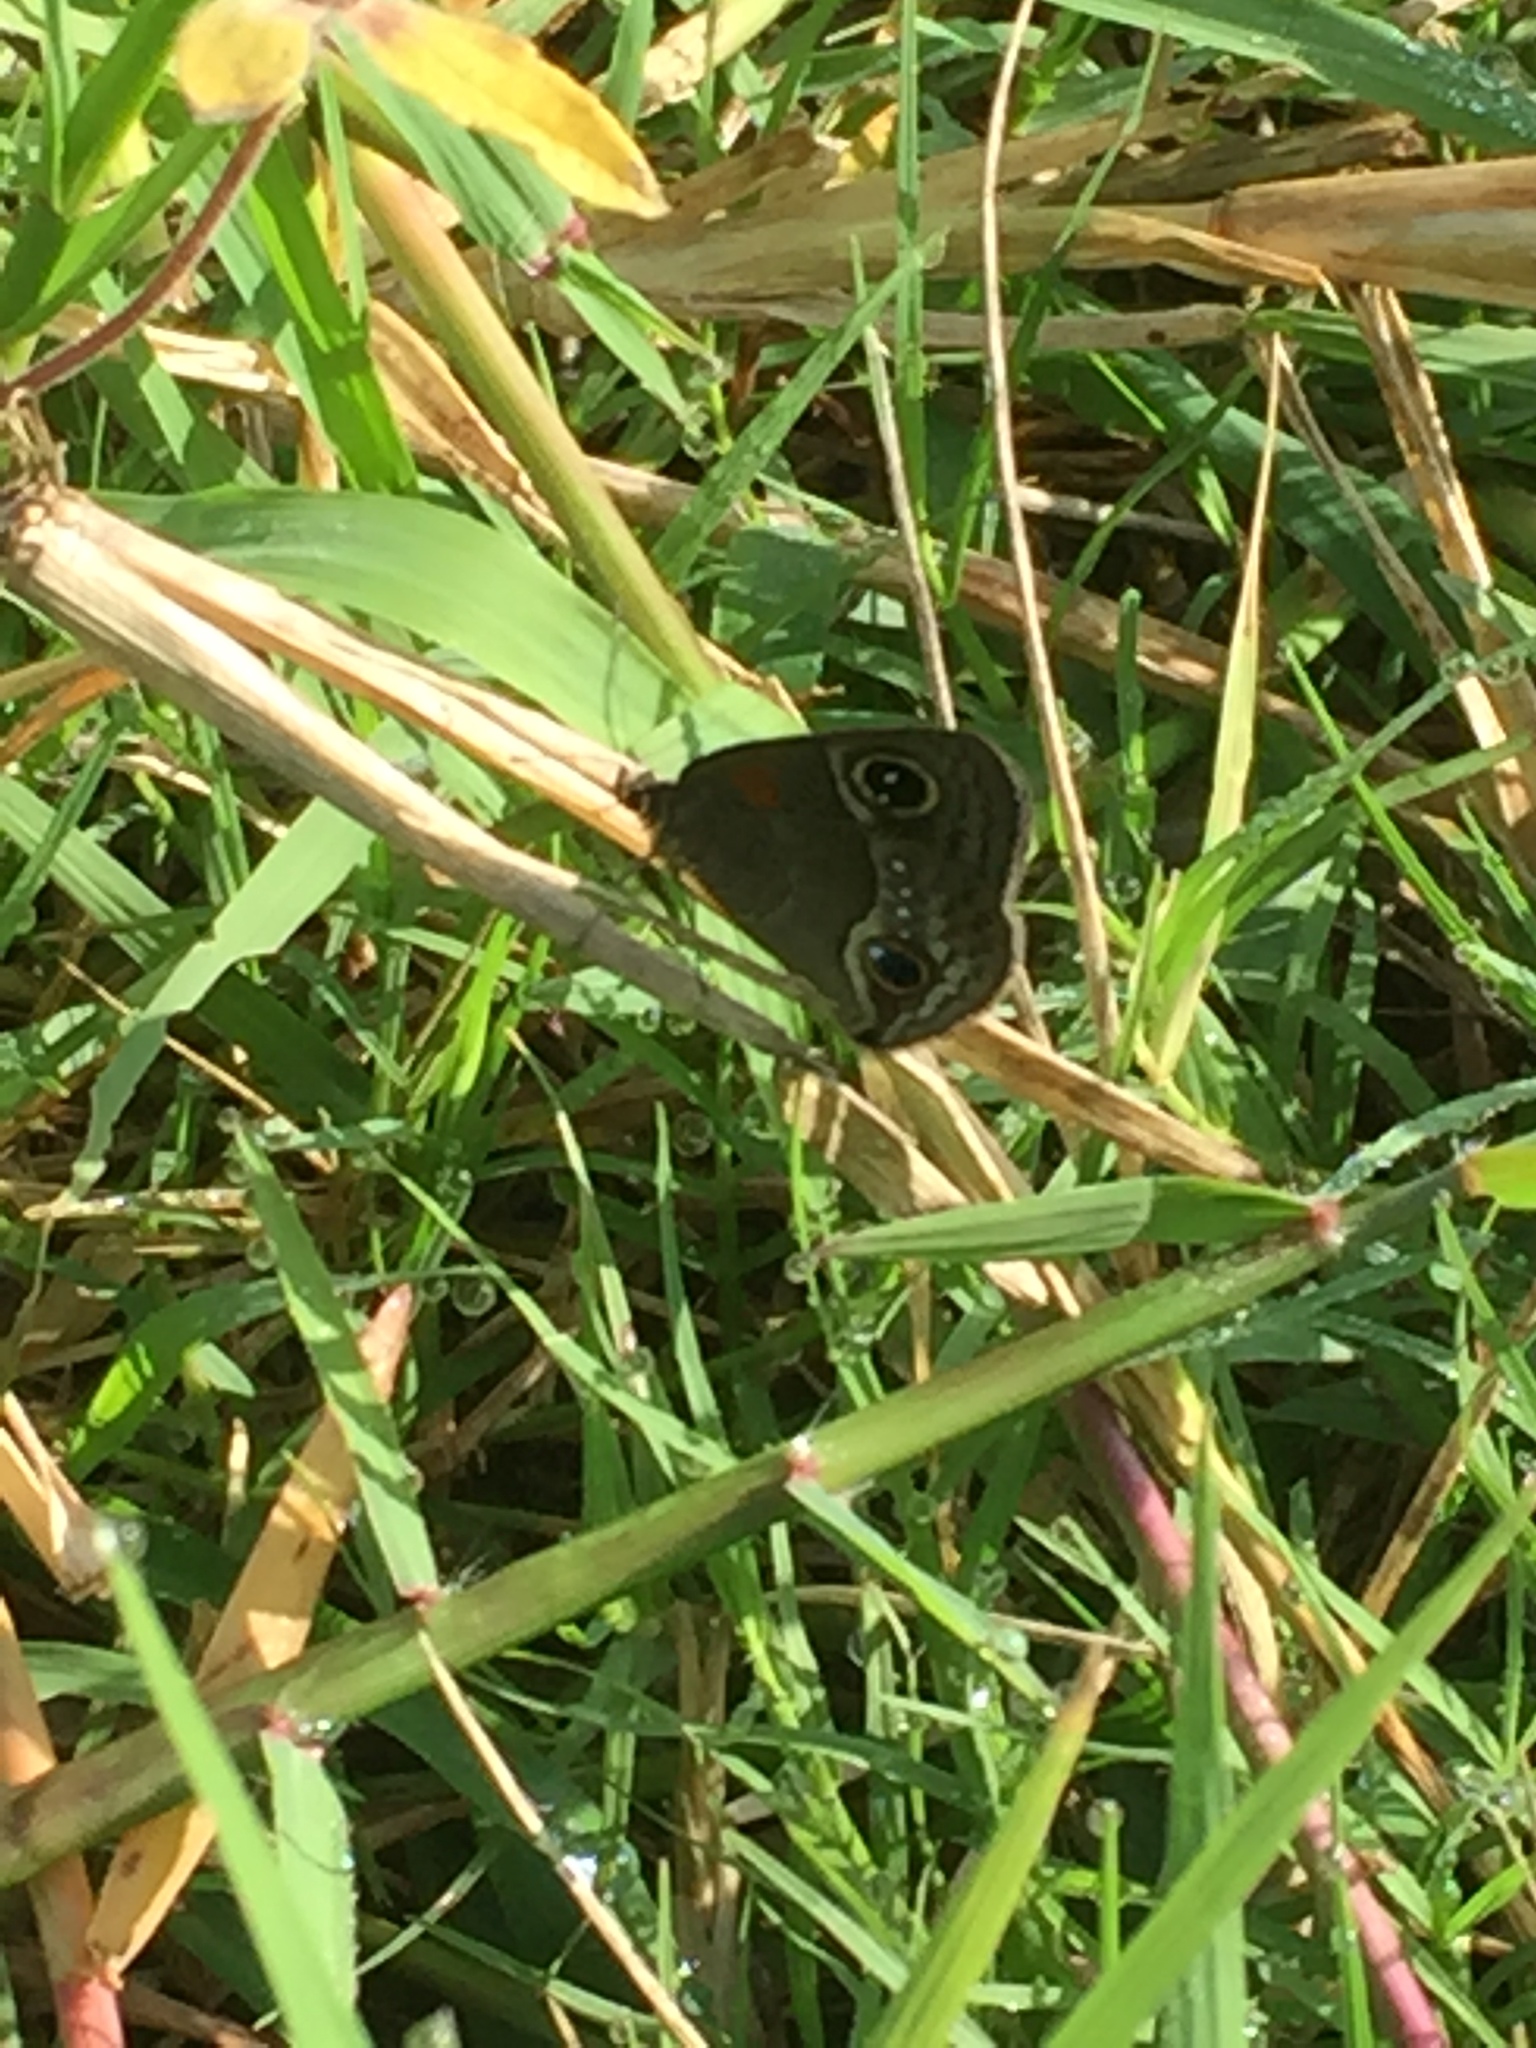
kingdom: Animalia
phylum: Arthropoda
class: Insecta
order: Lepidoptera
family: Nymphalidae
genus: Calisto
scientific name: Calisto herophile
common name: Cuban calisto
